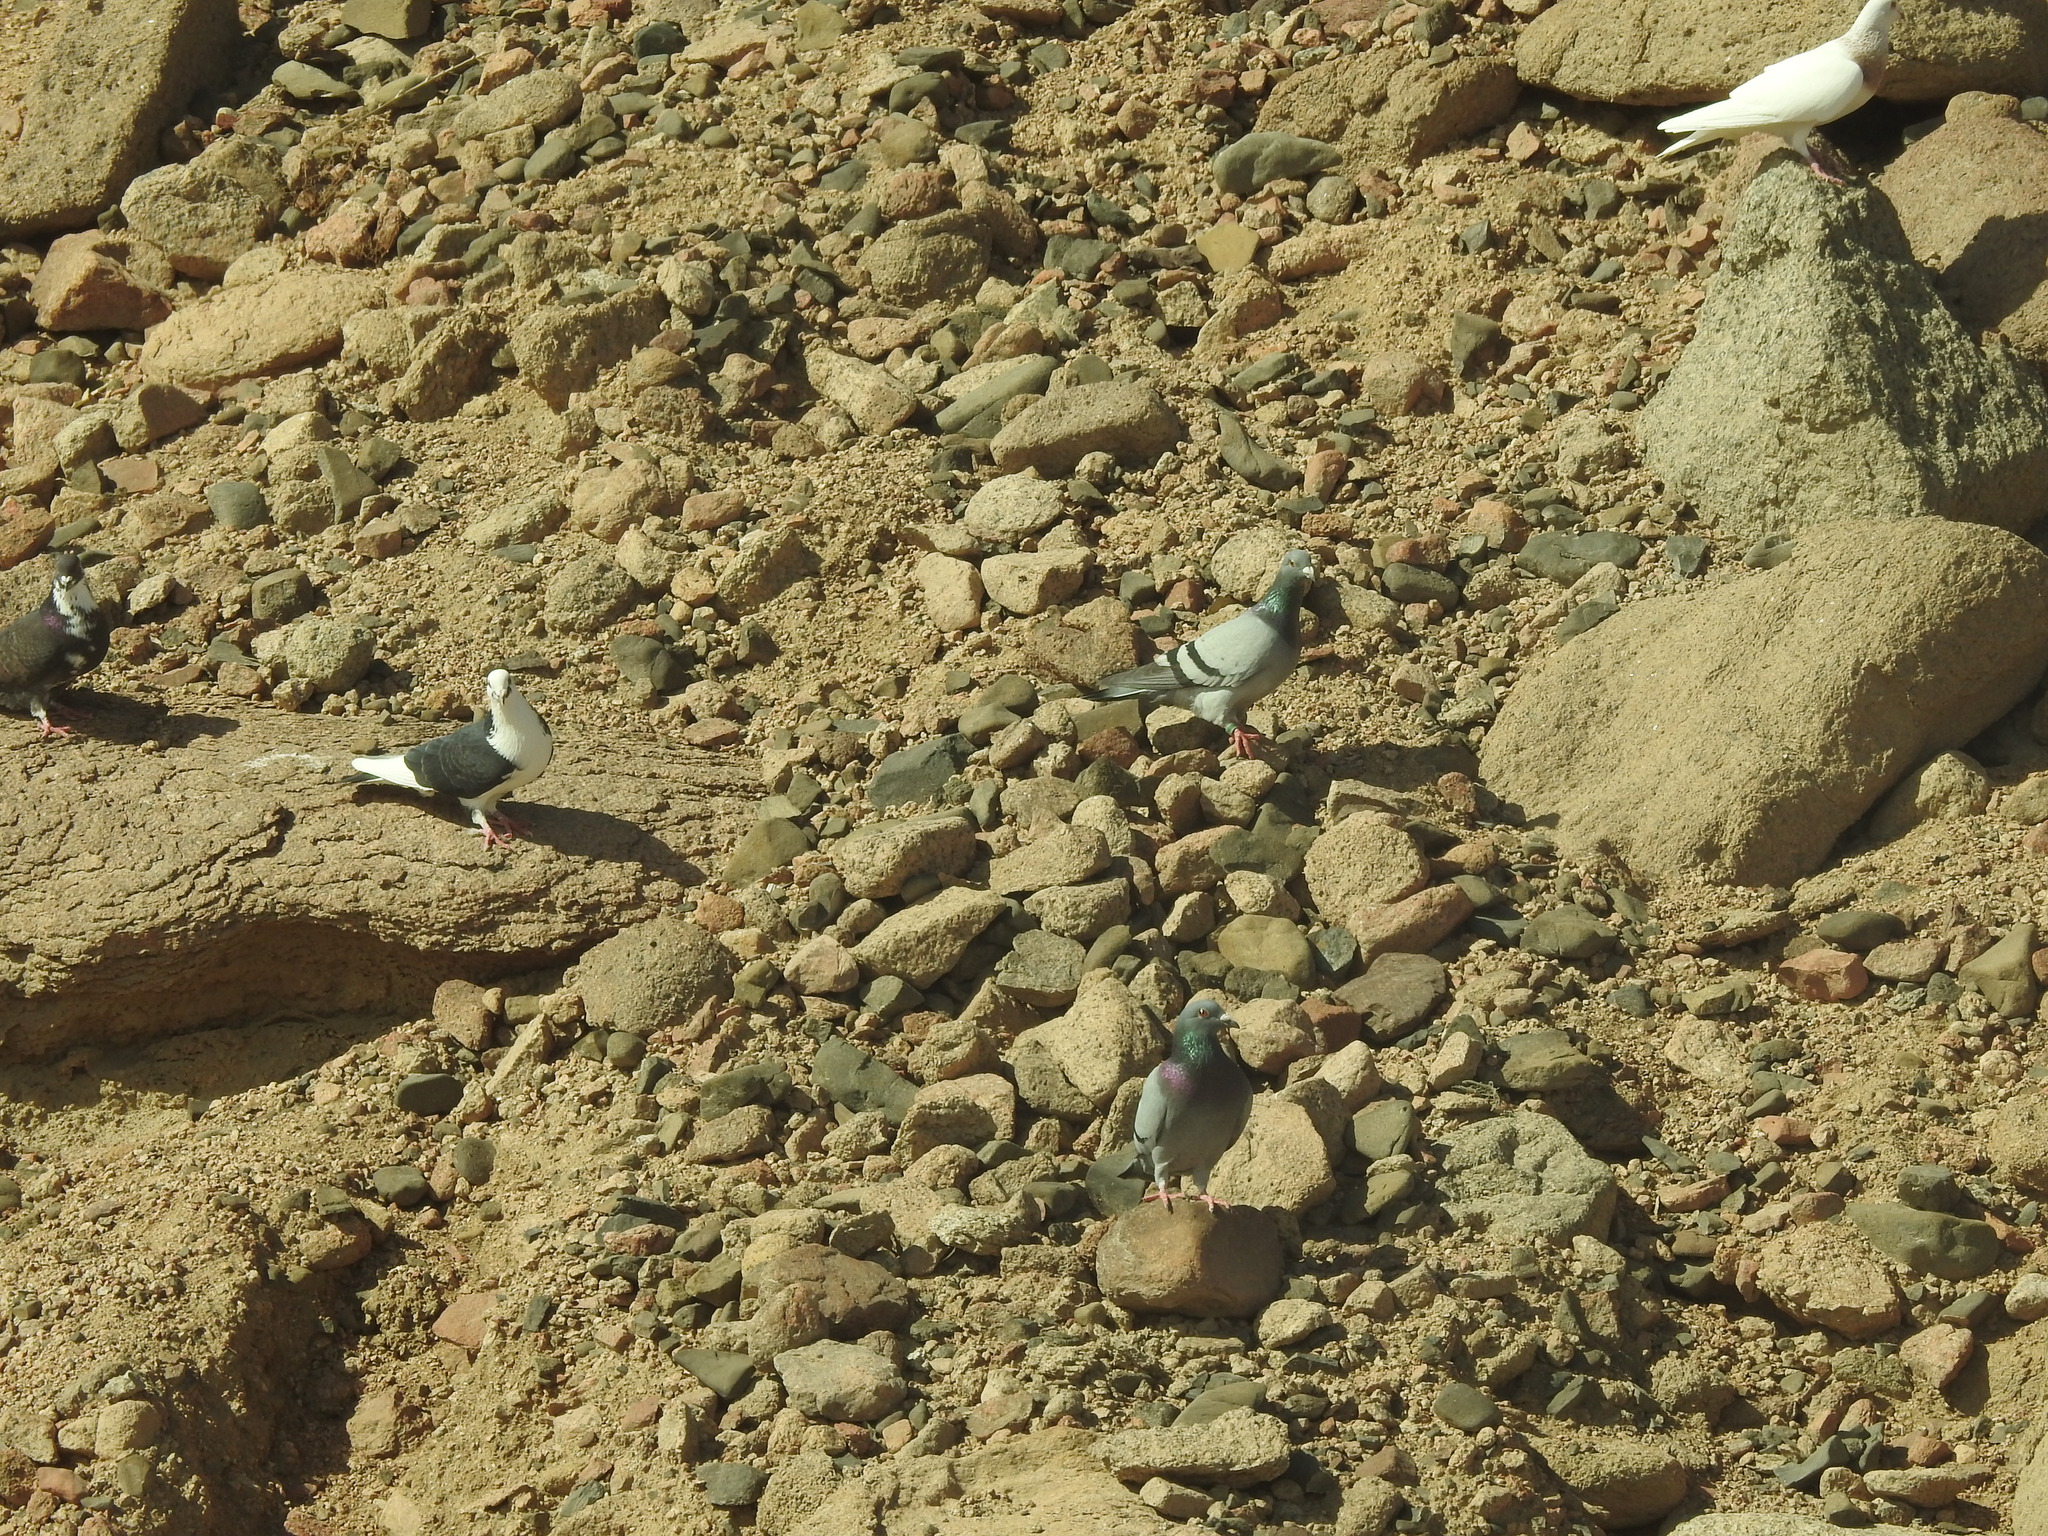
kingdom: Animalia
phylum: Chordata
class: Aves
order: Columbiformes
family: Columbidae
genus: Columba
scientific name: Columba livia
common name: Rock pigeon
